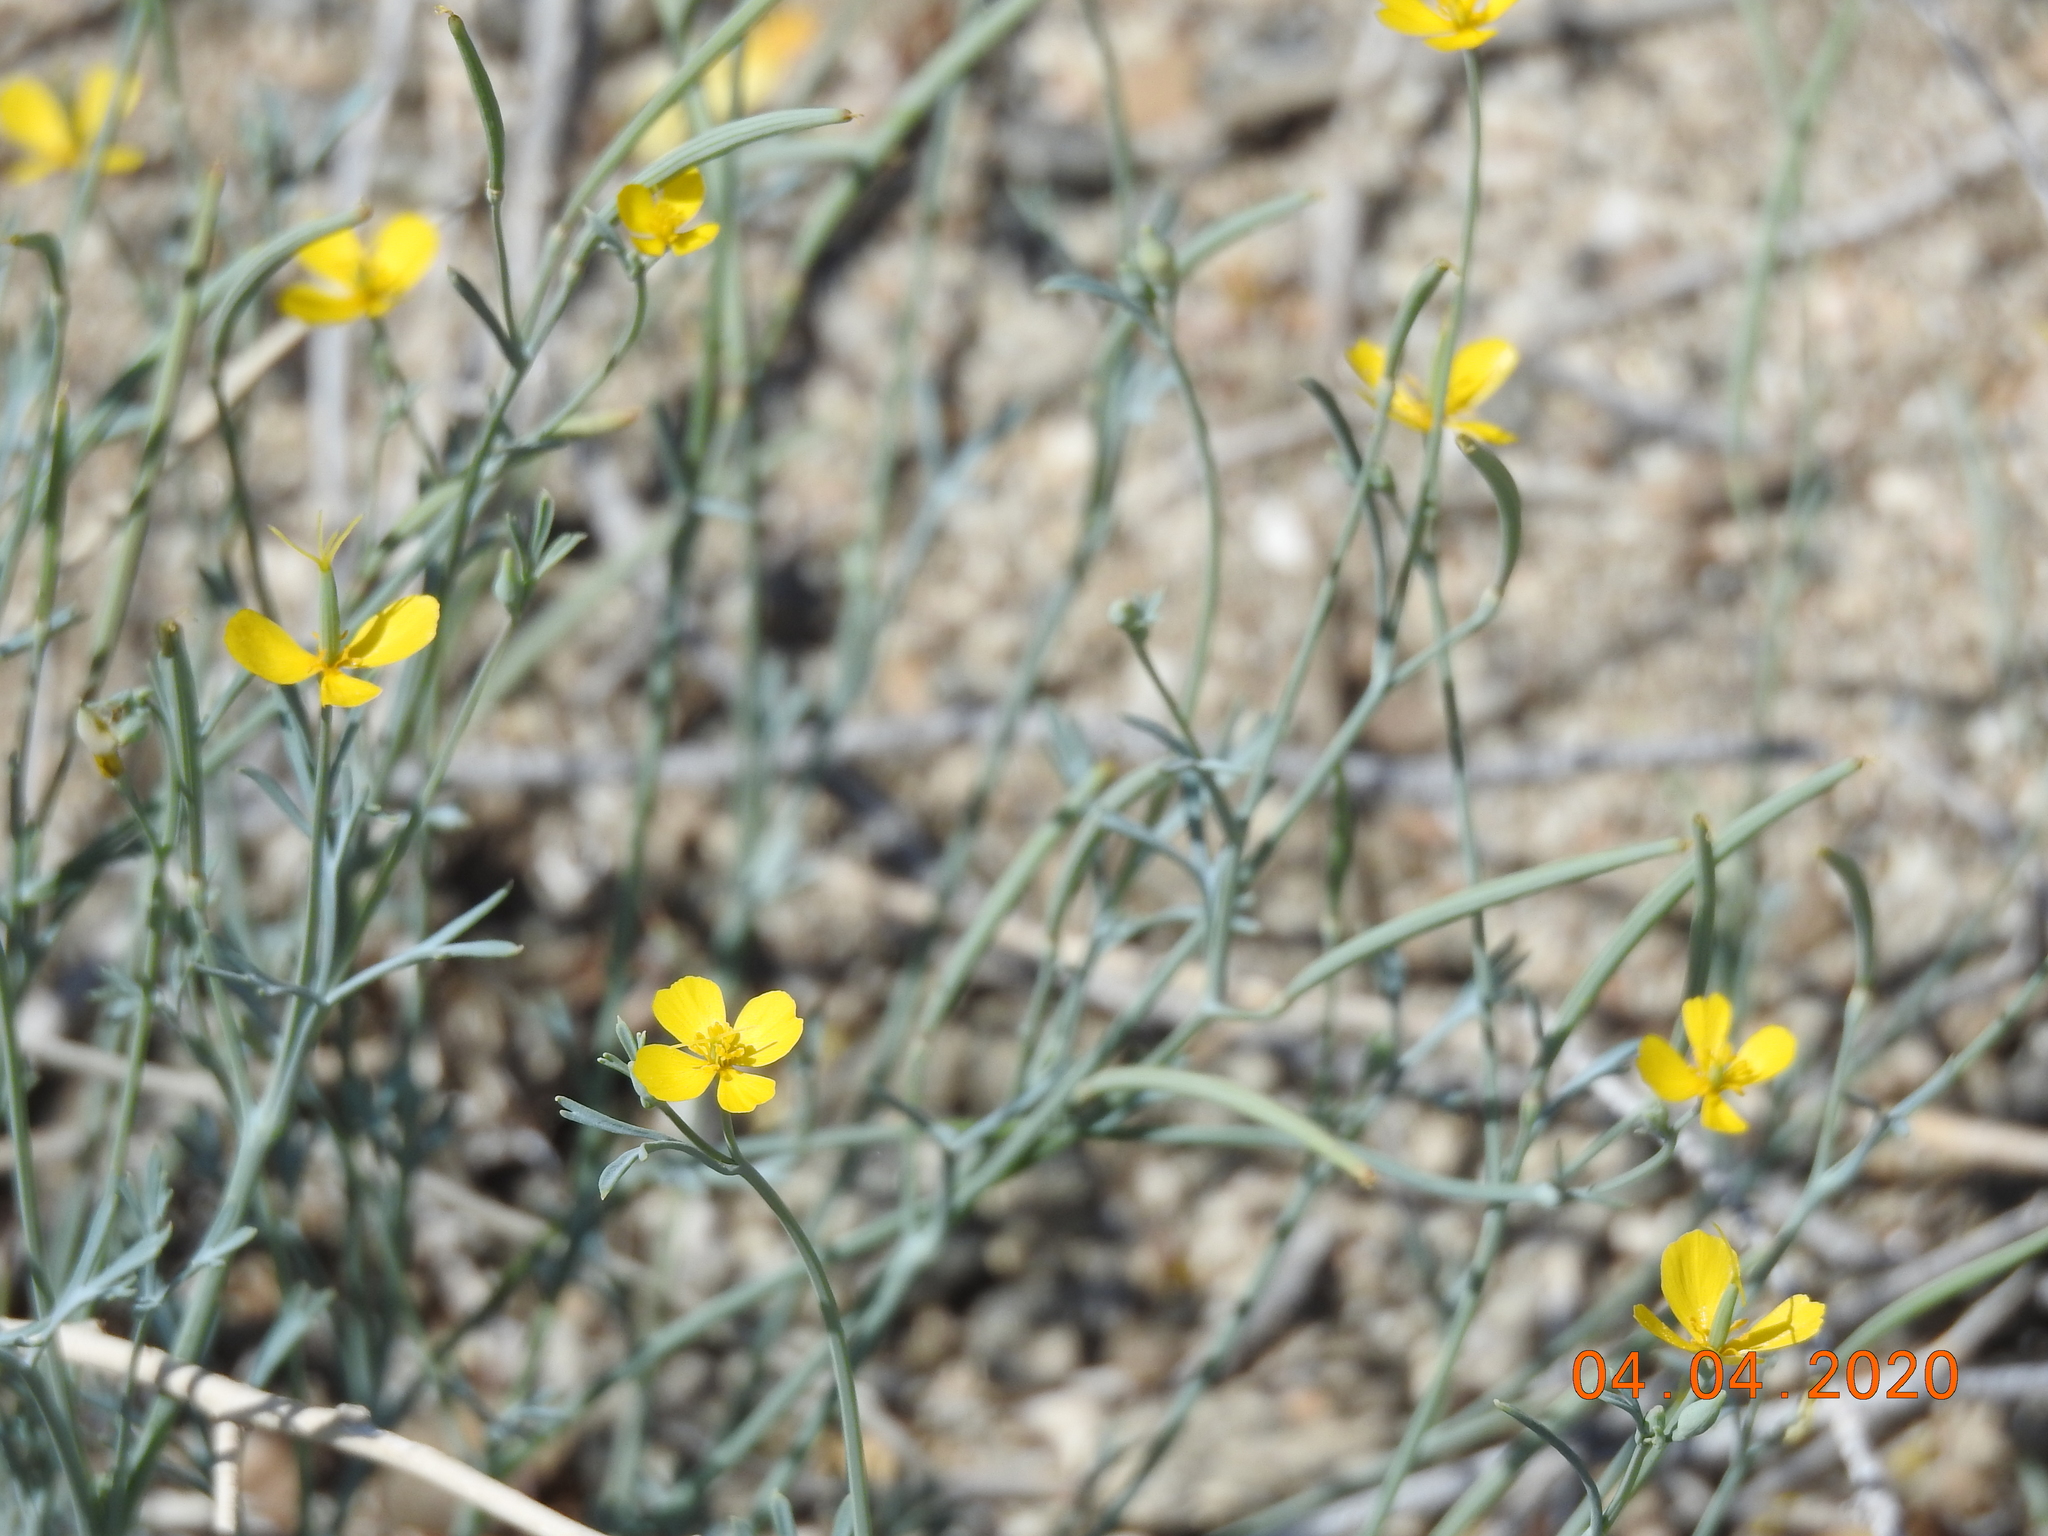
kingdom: Plantae
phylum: Tracheophyta
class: Magnoliopsida
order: Ranunculales
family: Papaveraceae
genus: Eschscholzia
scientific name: Eschscholzia minutiflora
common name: Small-flower california-poppy
